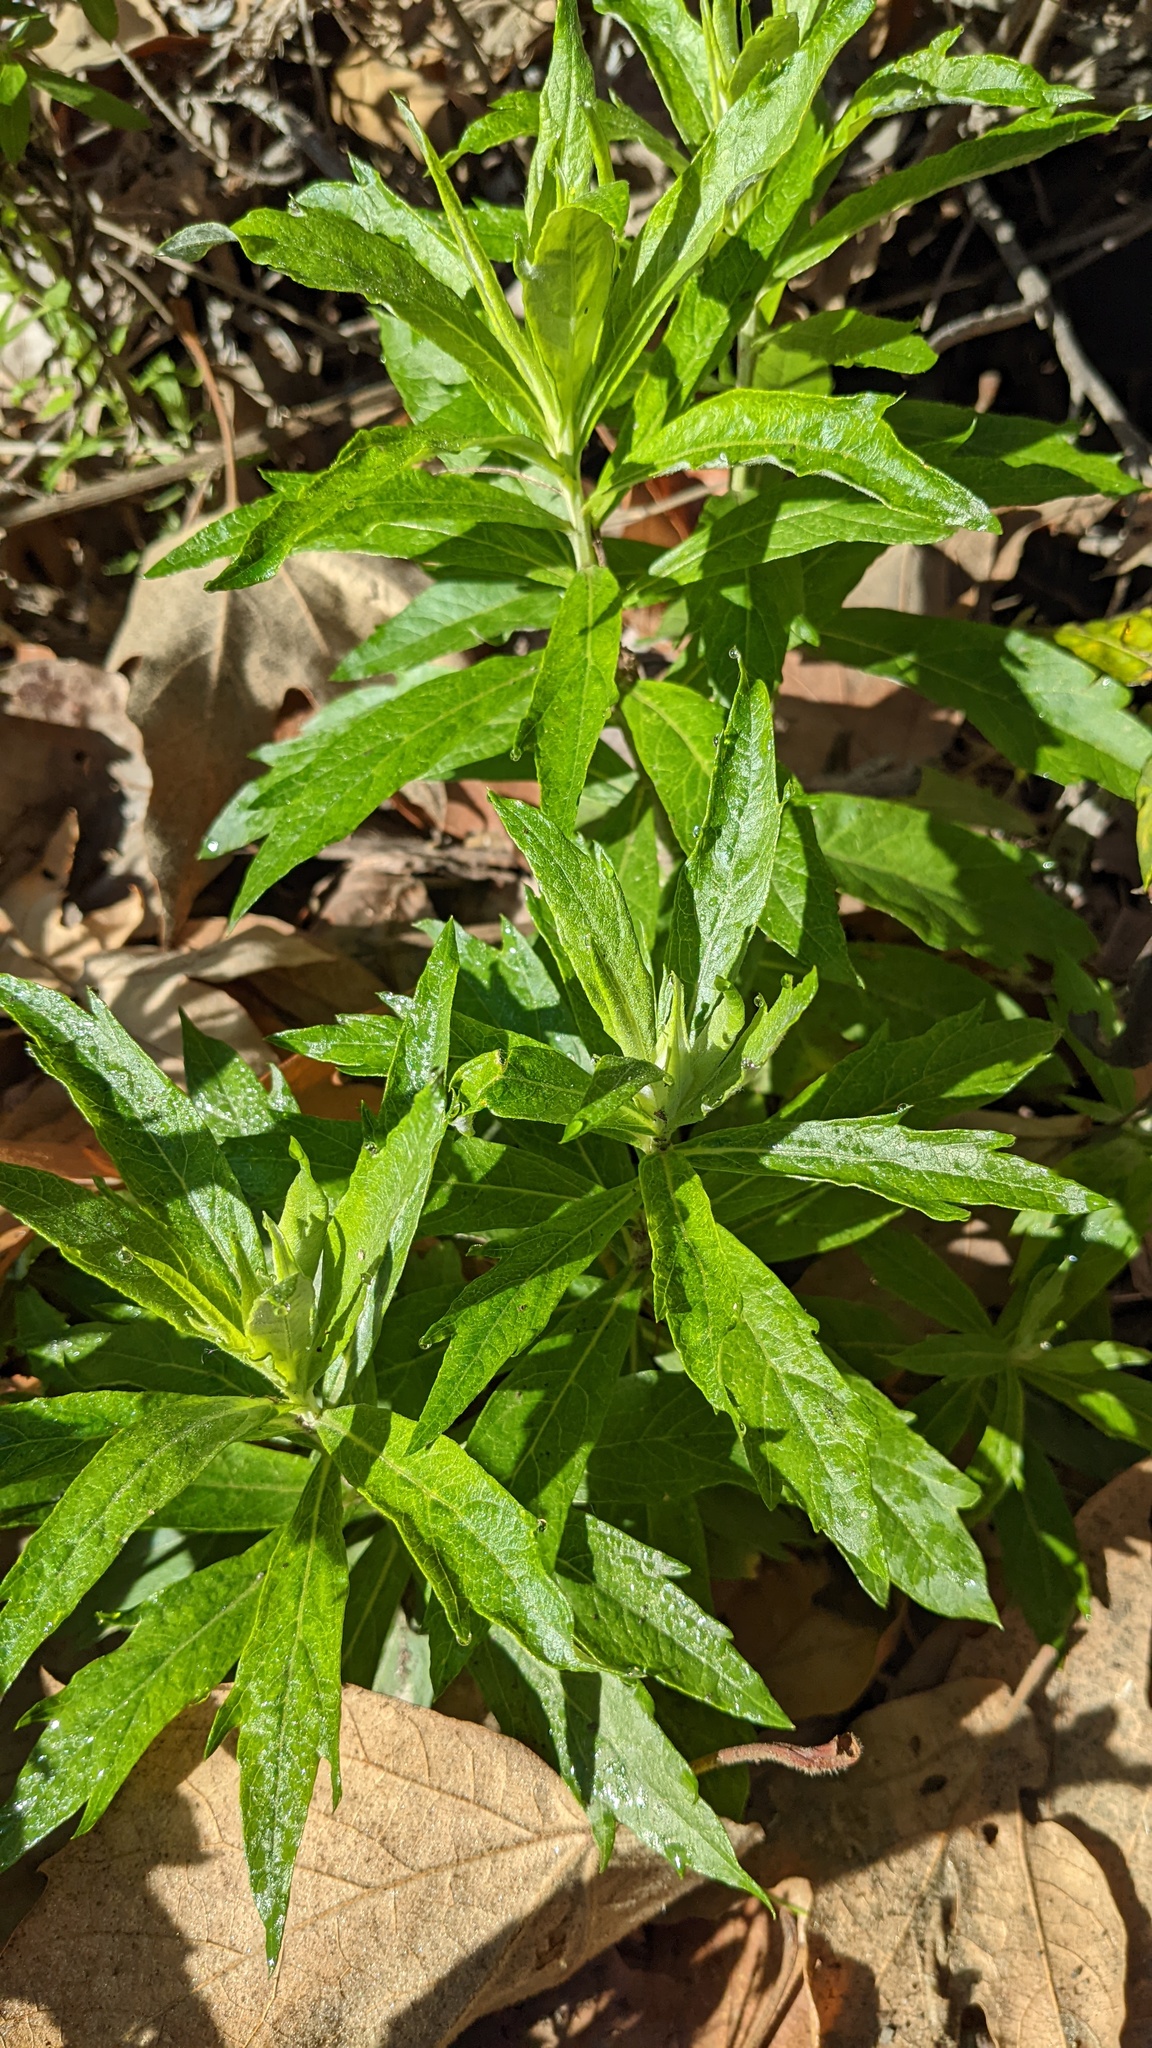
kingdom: Plantae
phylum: Tracheophyta
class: Magnoliopsida
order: Asterales
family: Asteraceae
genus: Artemisia
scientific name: Artemisia douglasiana
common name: Northwest mugwort
